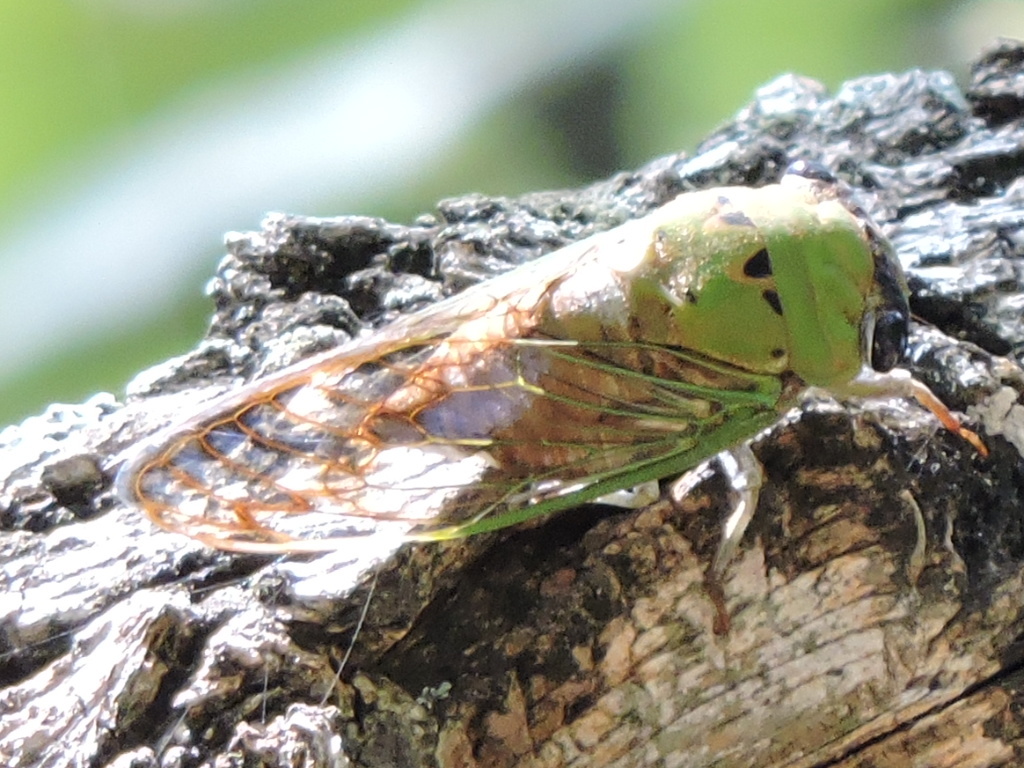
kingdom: Animalia
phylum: Arthropoda
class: Insecta
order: Hemiptera
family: Cicadidae
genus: Neotibicen
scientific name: Neotibicen superbus
